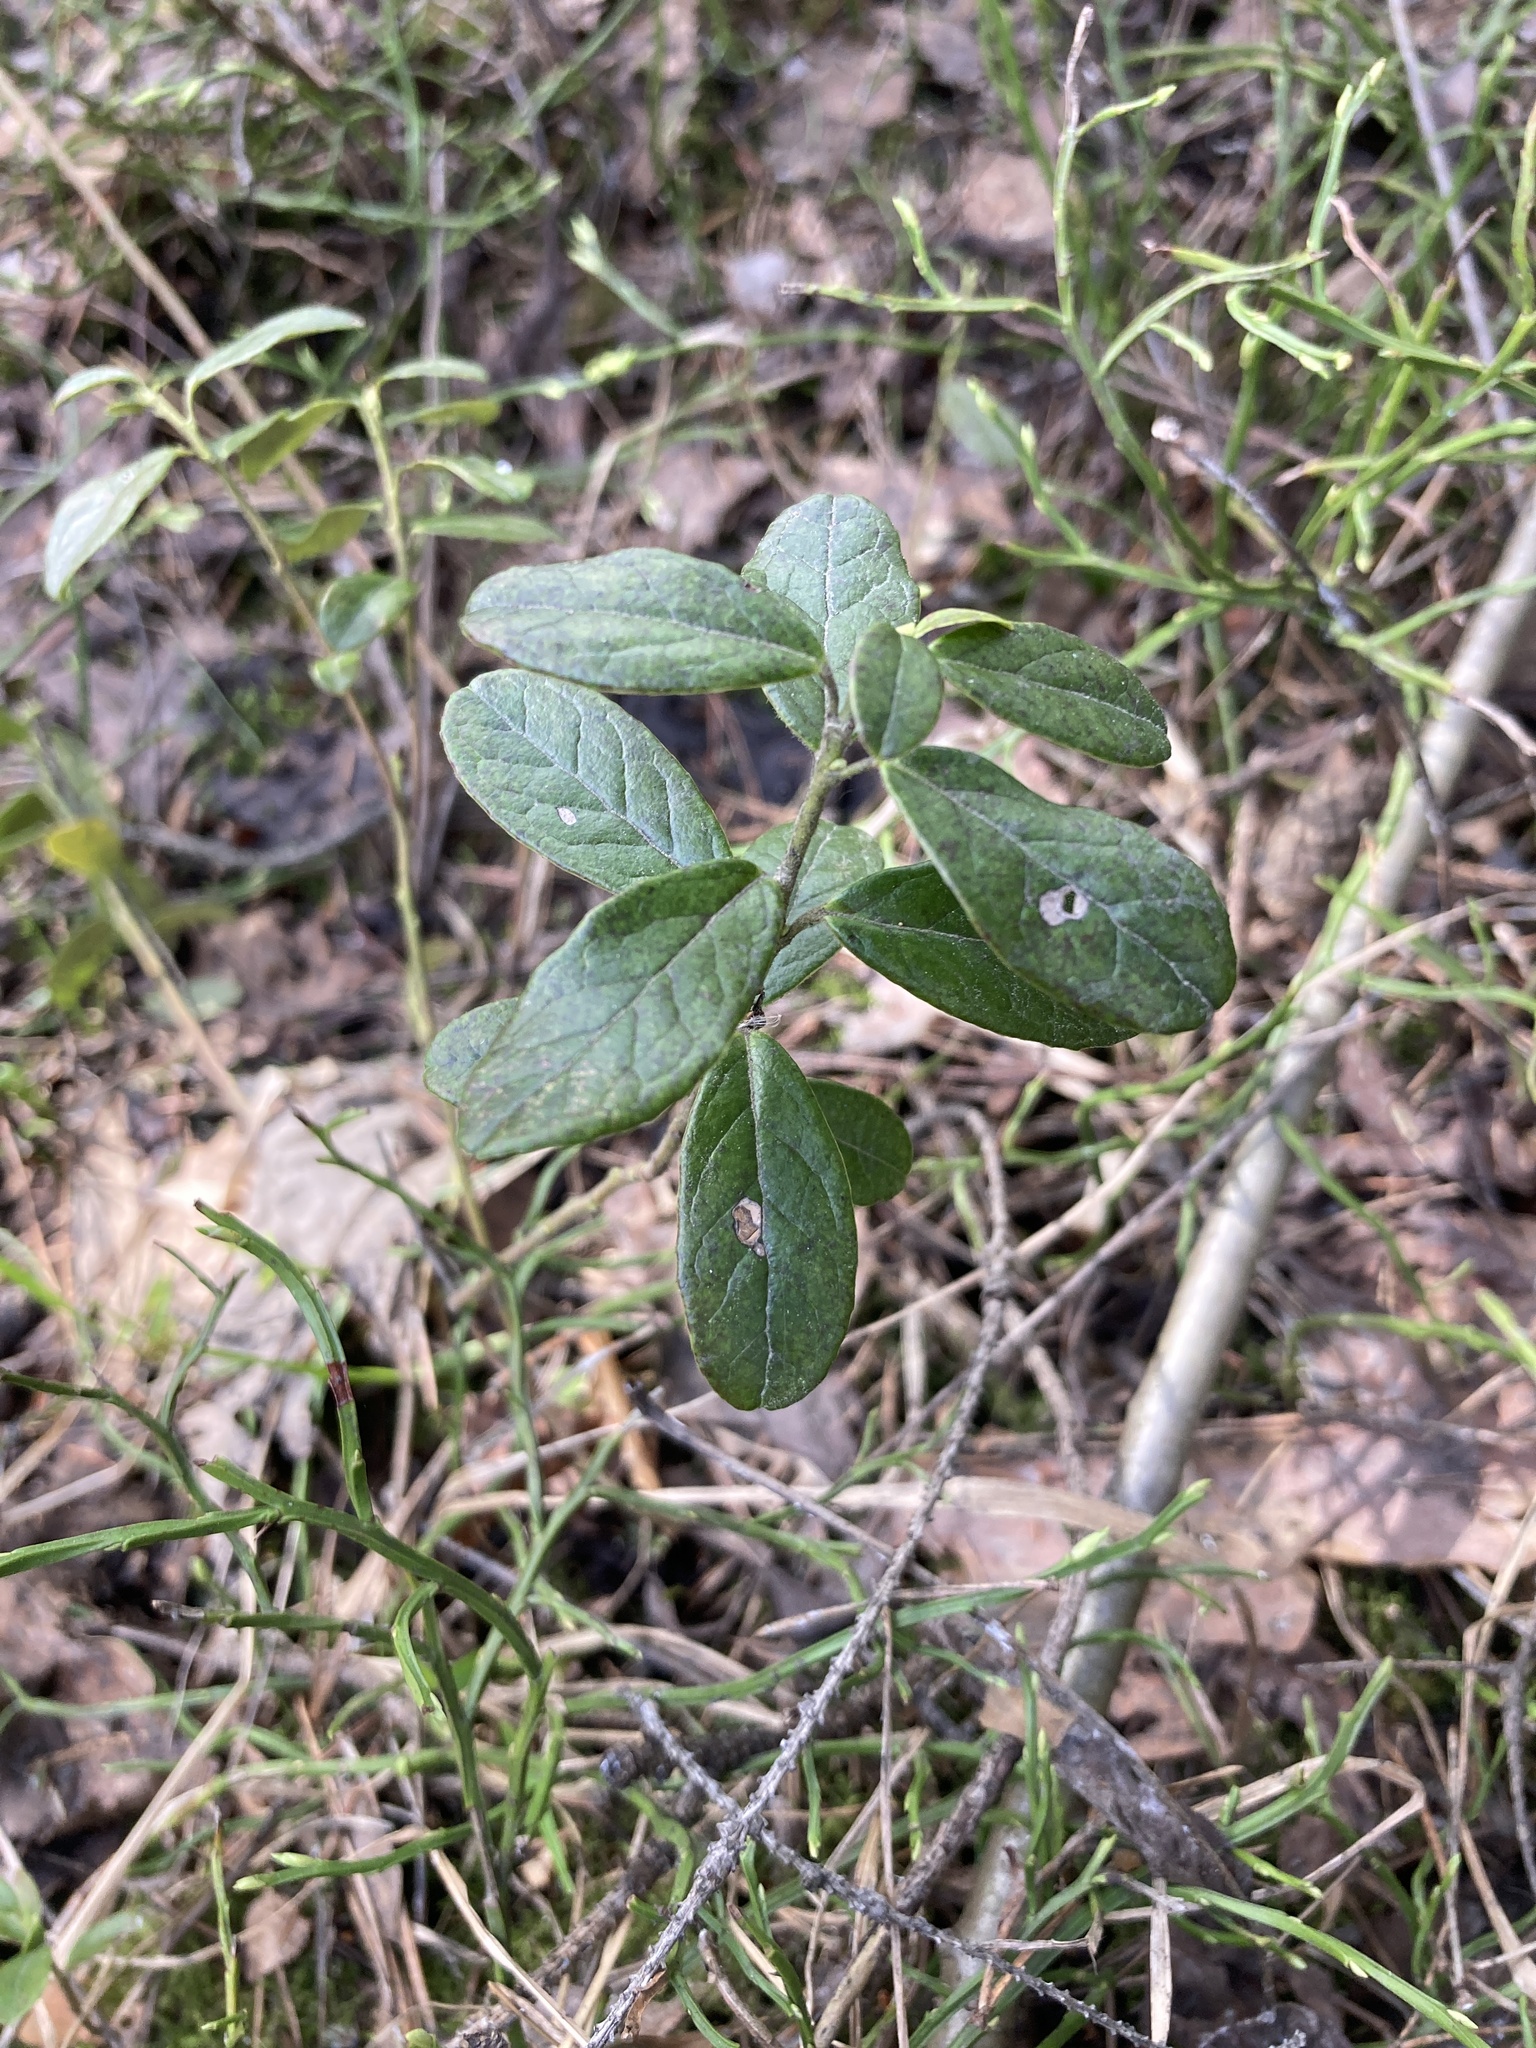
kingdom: Plantae
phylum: Tracheophyta
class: Magnoliopsida
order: Ericales
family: Ericaceae
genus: Vaccinium
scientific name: Vaccinium vitis-idaea
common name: Cowberry
